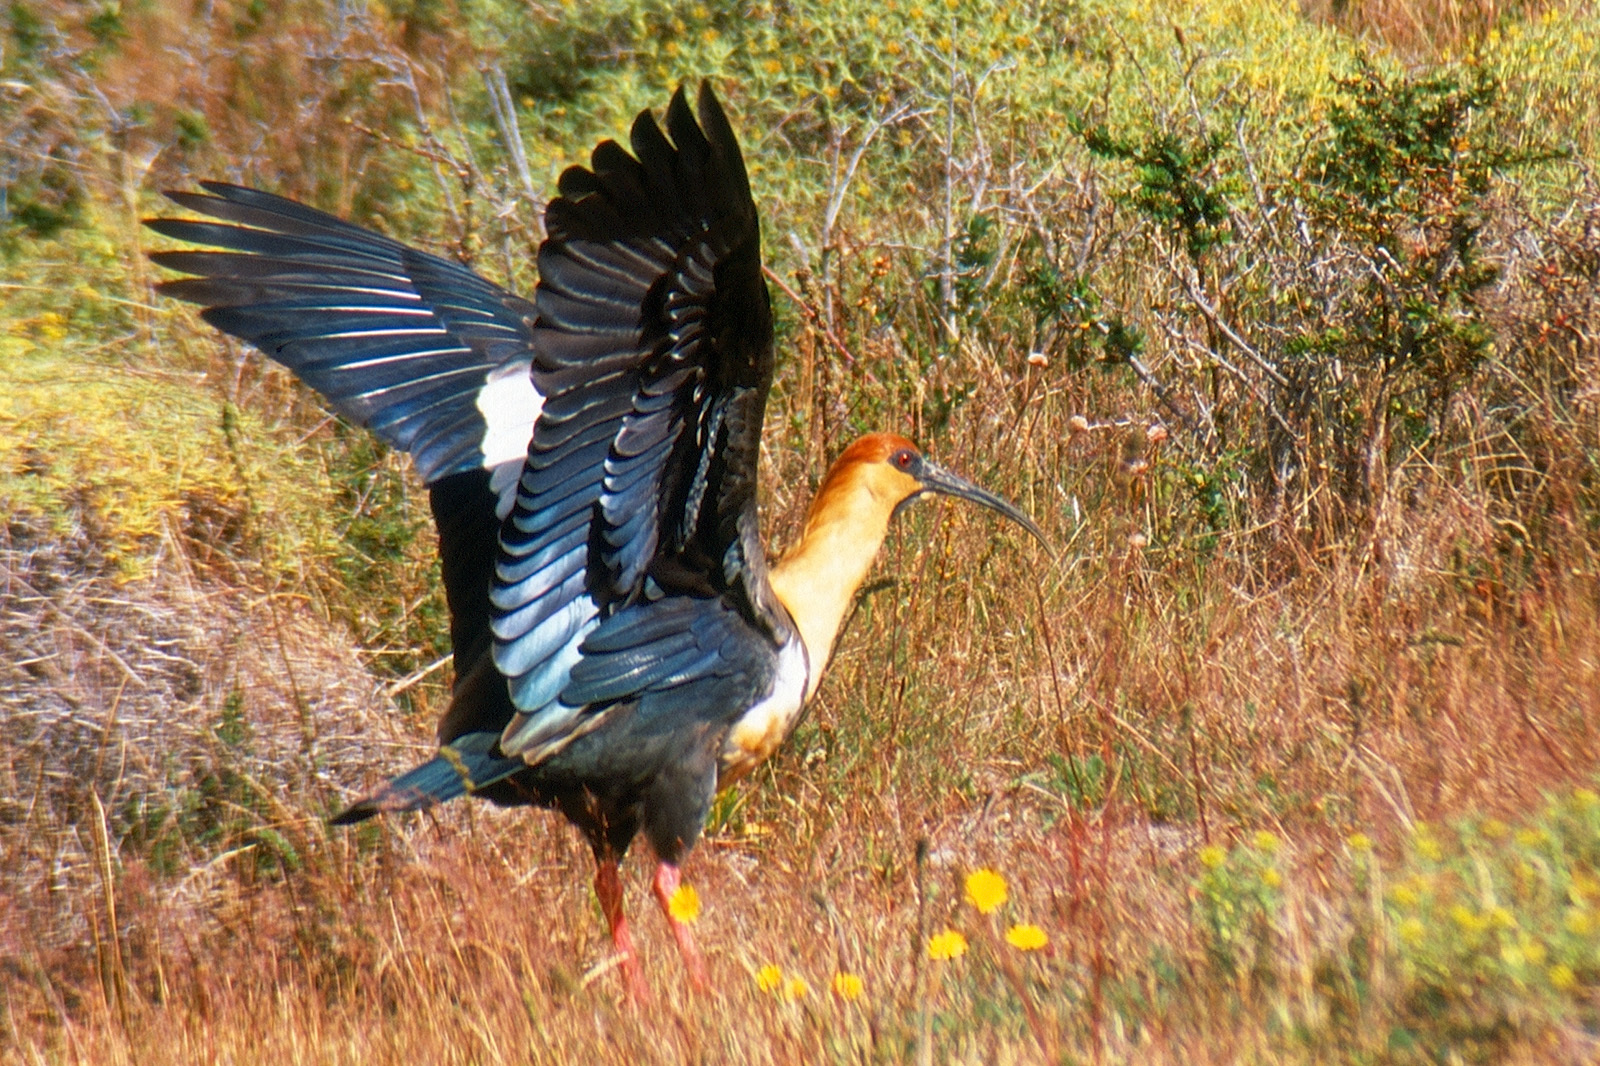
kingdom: Animalia
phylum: Chordata
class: Aves
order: Pelecaniformes
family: Threskiornithidae
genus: Theristicus
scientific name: Theristicus melanopis
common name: Black-faced ibis
